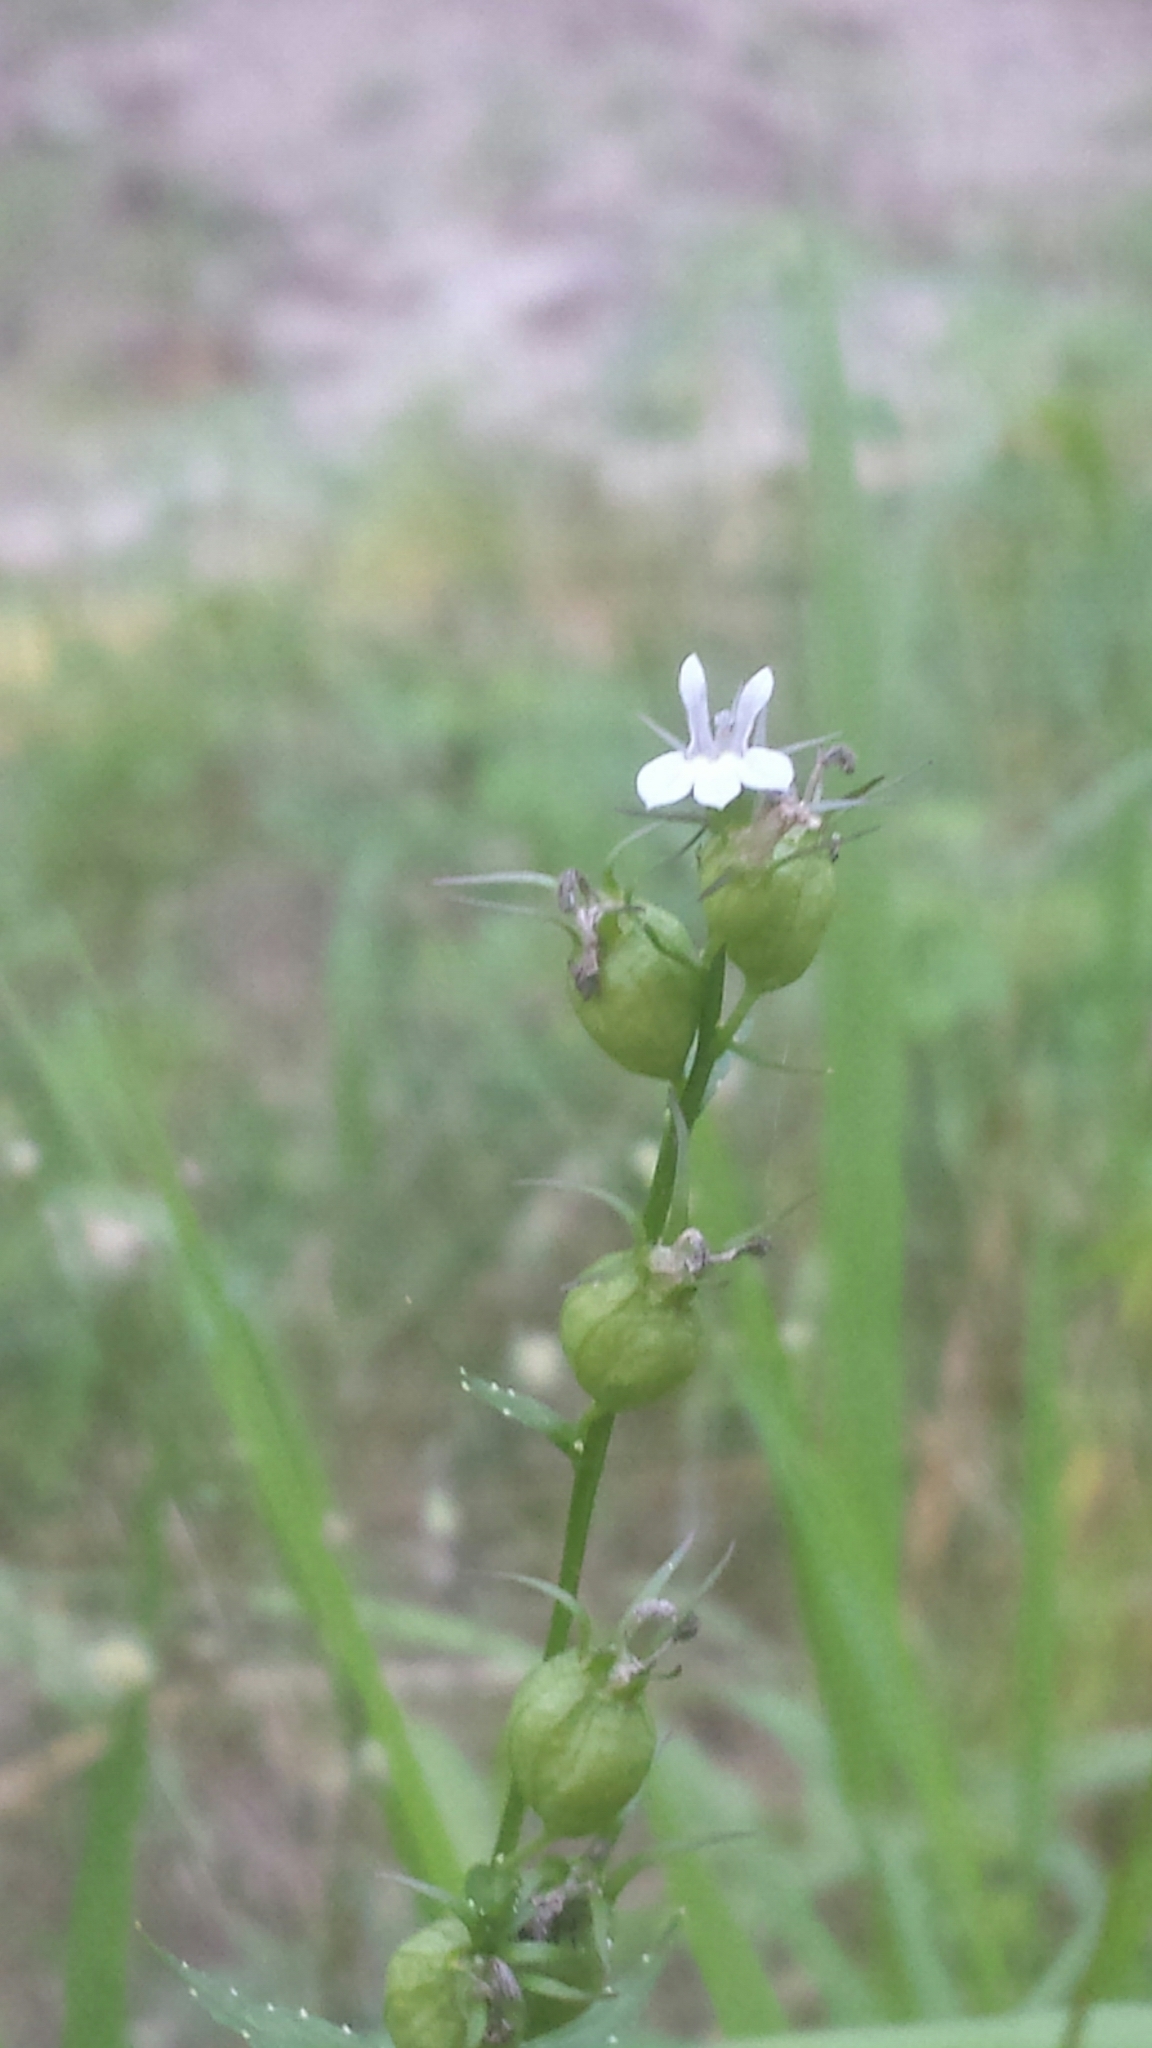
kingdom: Plantae
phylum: Tracheophyta
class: Magnoliopsida
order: Asterales
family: Campanulaceae
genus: Lobelia
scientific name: Lobelia inflata
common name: Indian tobacco
